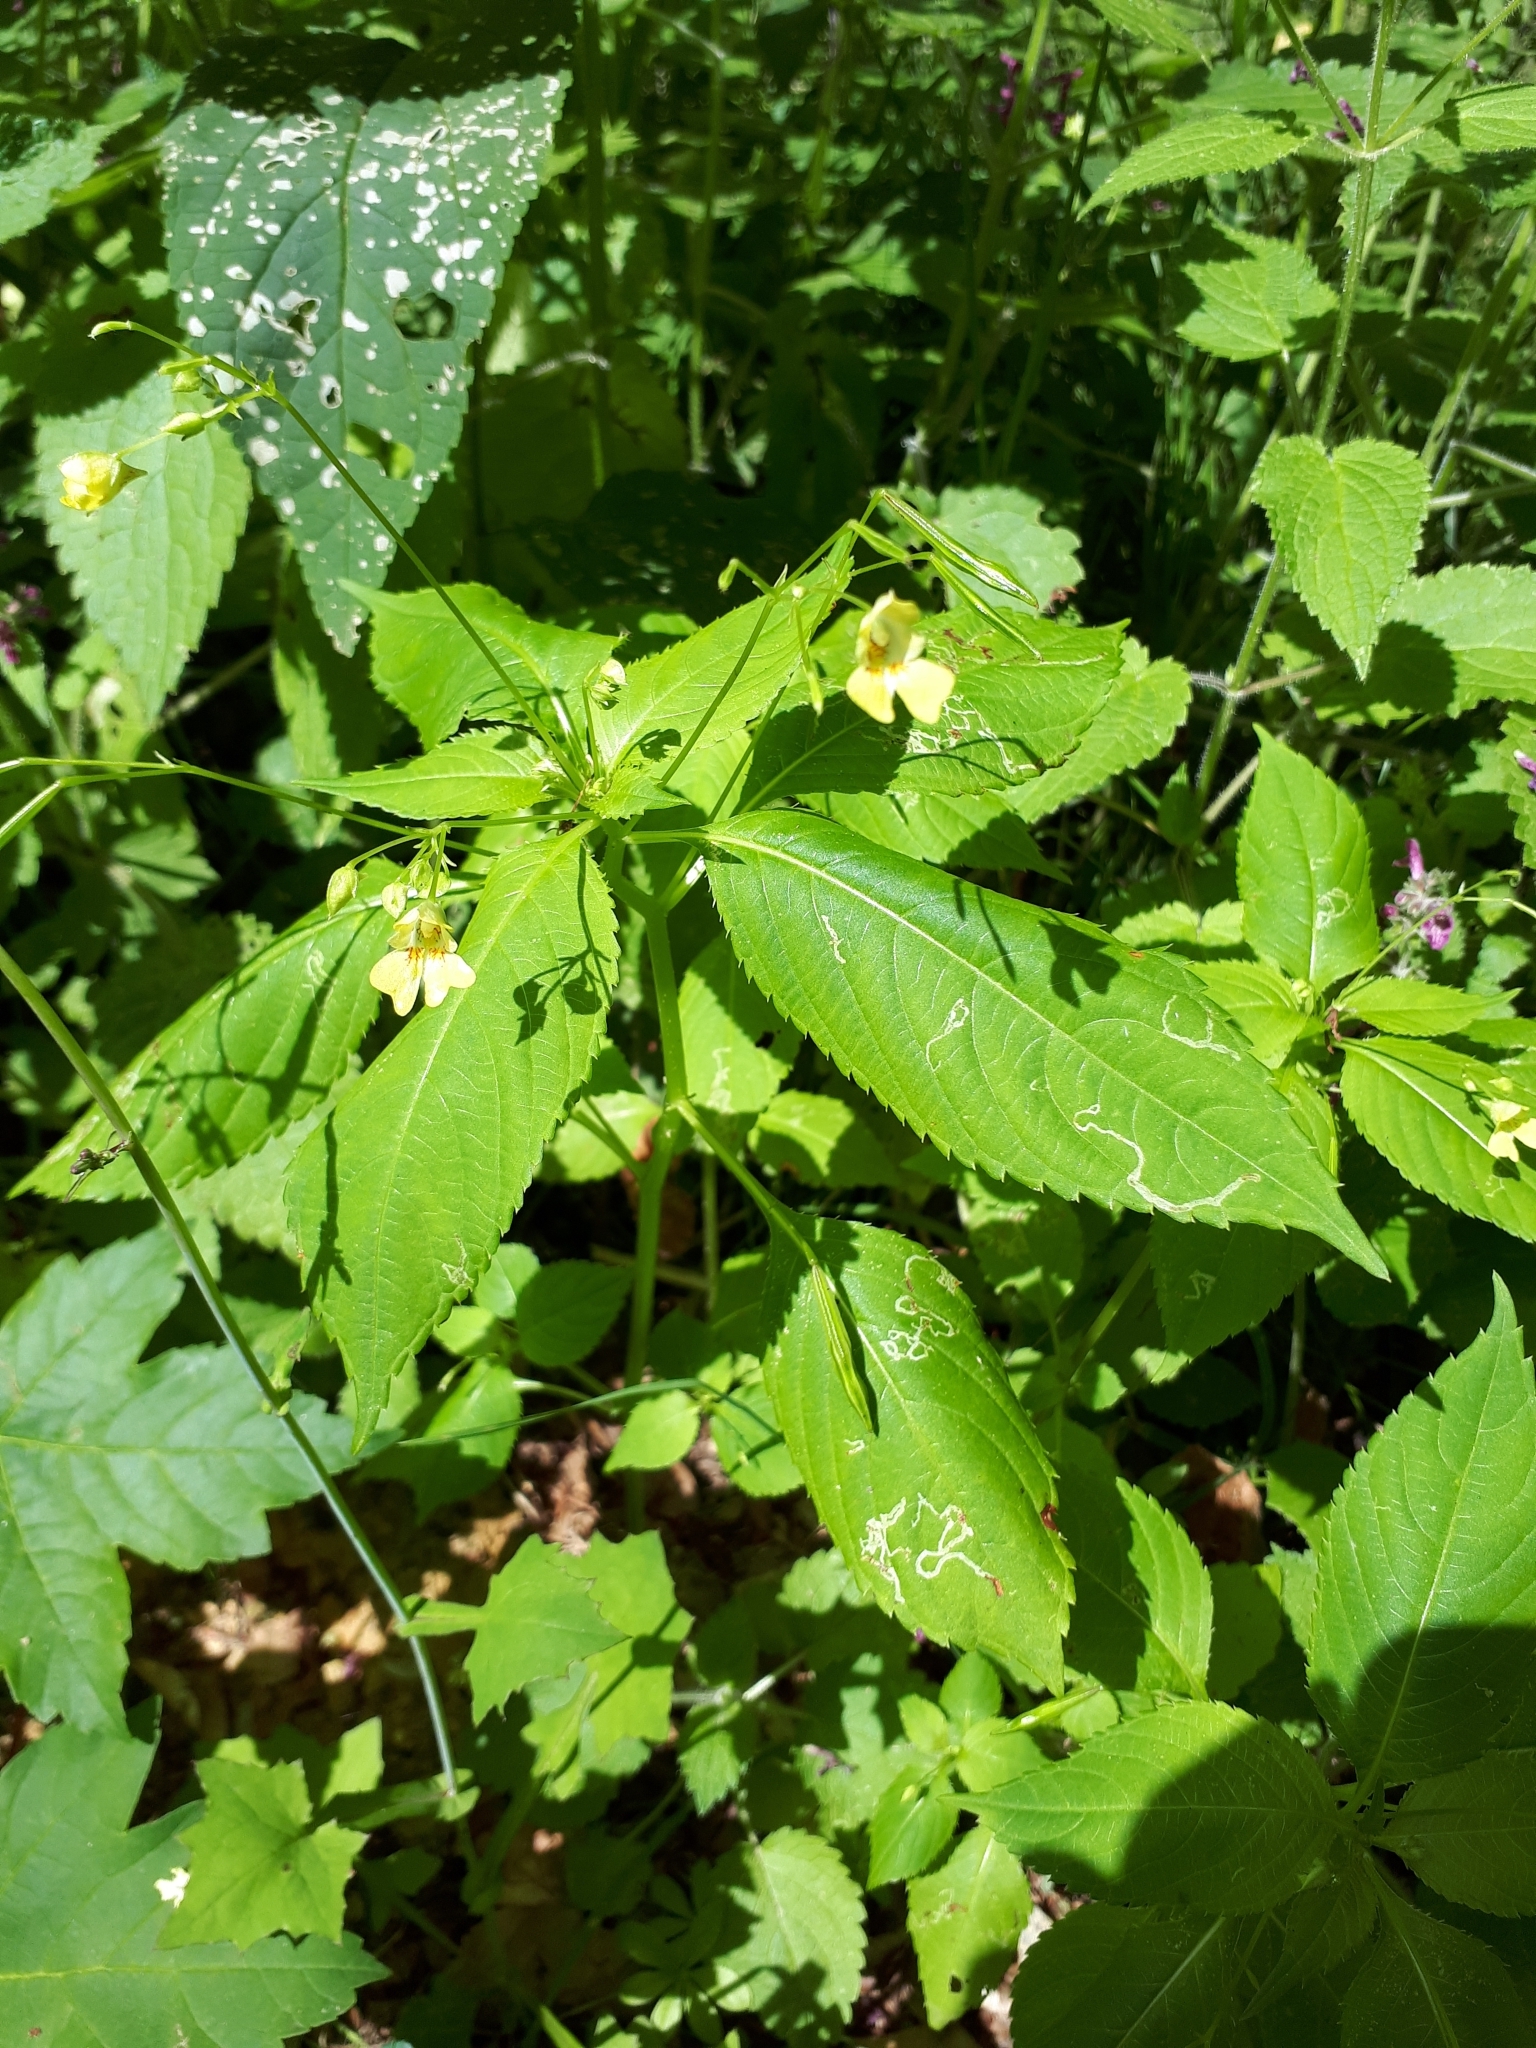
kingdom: Plantae
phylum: Tracheophyta
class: Magnoliopsida
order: Ericales
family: Balsaminaceae
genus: Impatiens
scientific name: Impatiens parviflora
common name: Small balsam
